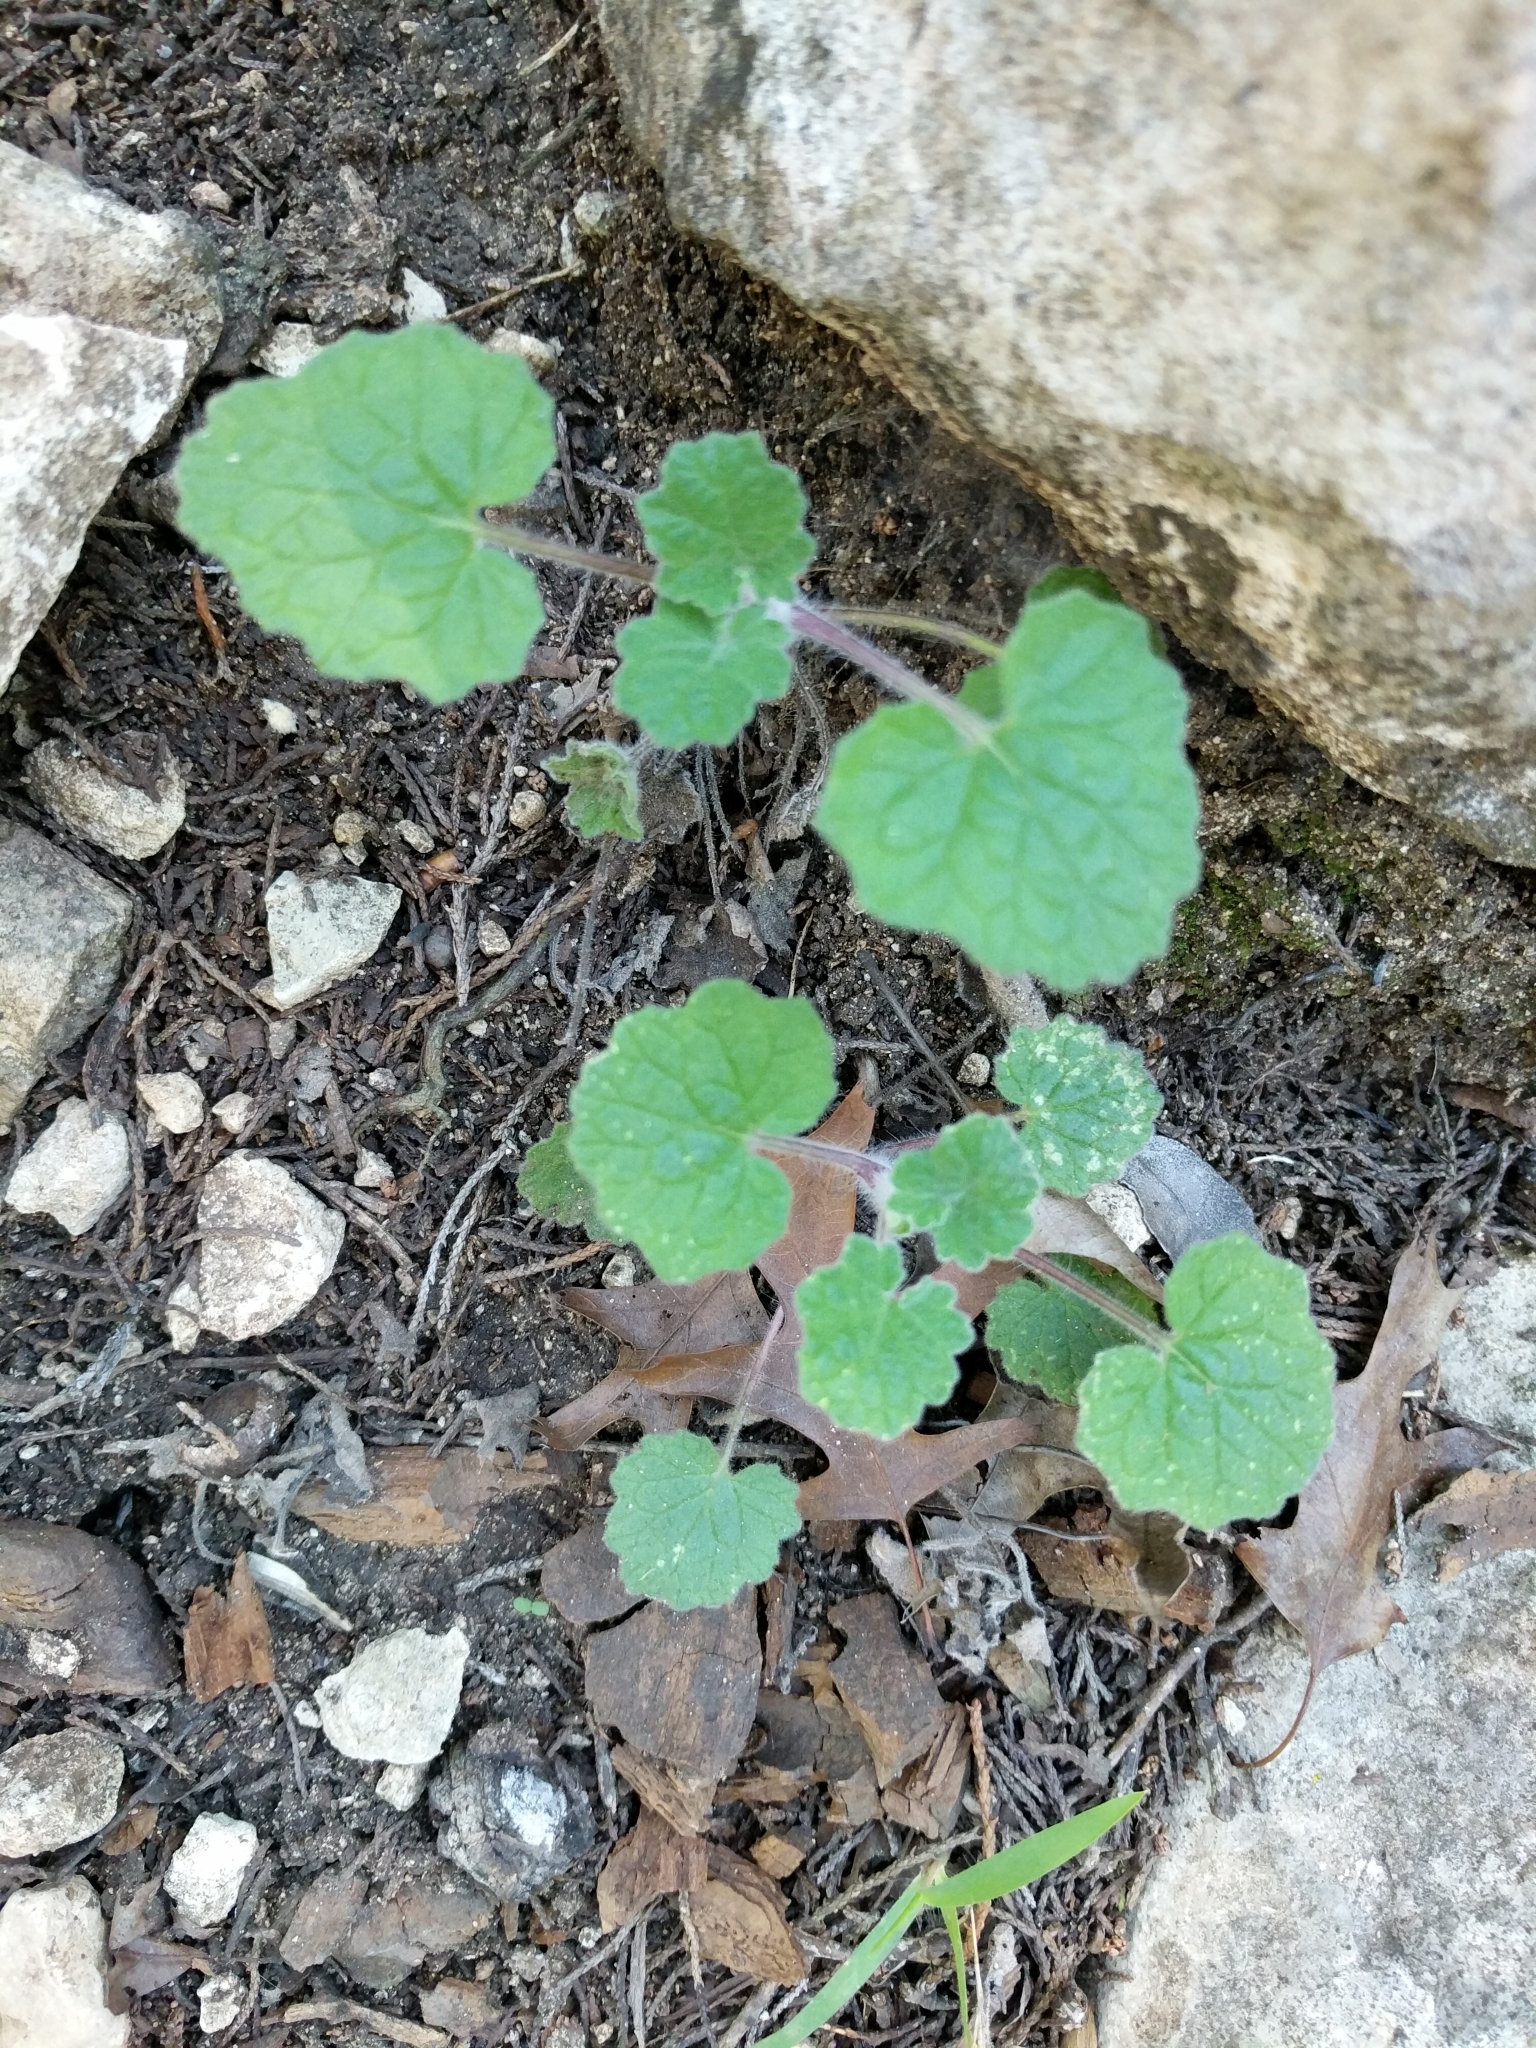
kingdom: Plantae
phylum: Tracheophyta
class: Magnoliopsida
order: Lamiales
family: Lamiaceae
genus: Salvia
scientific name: Salvia roemeriana
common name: Cedar sage
